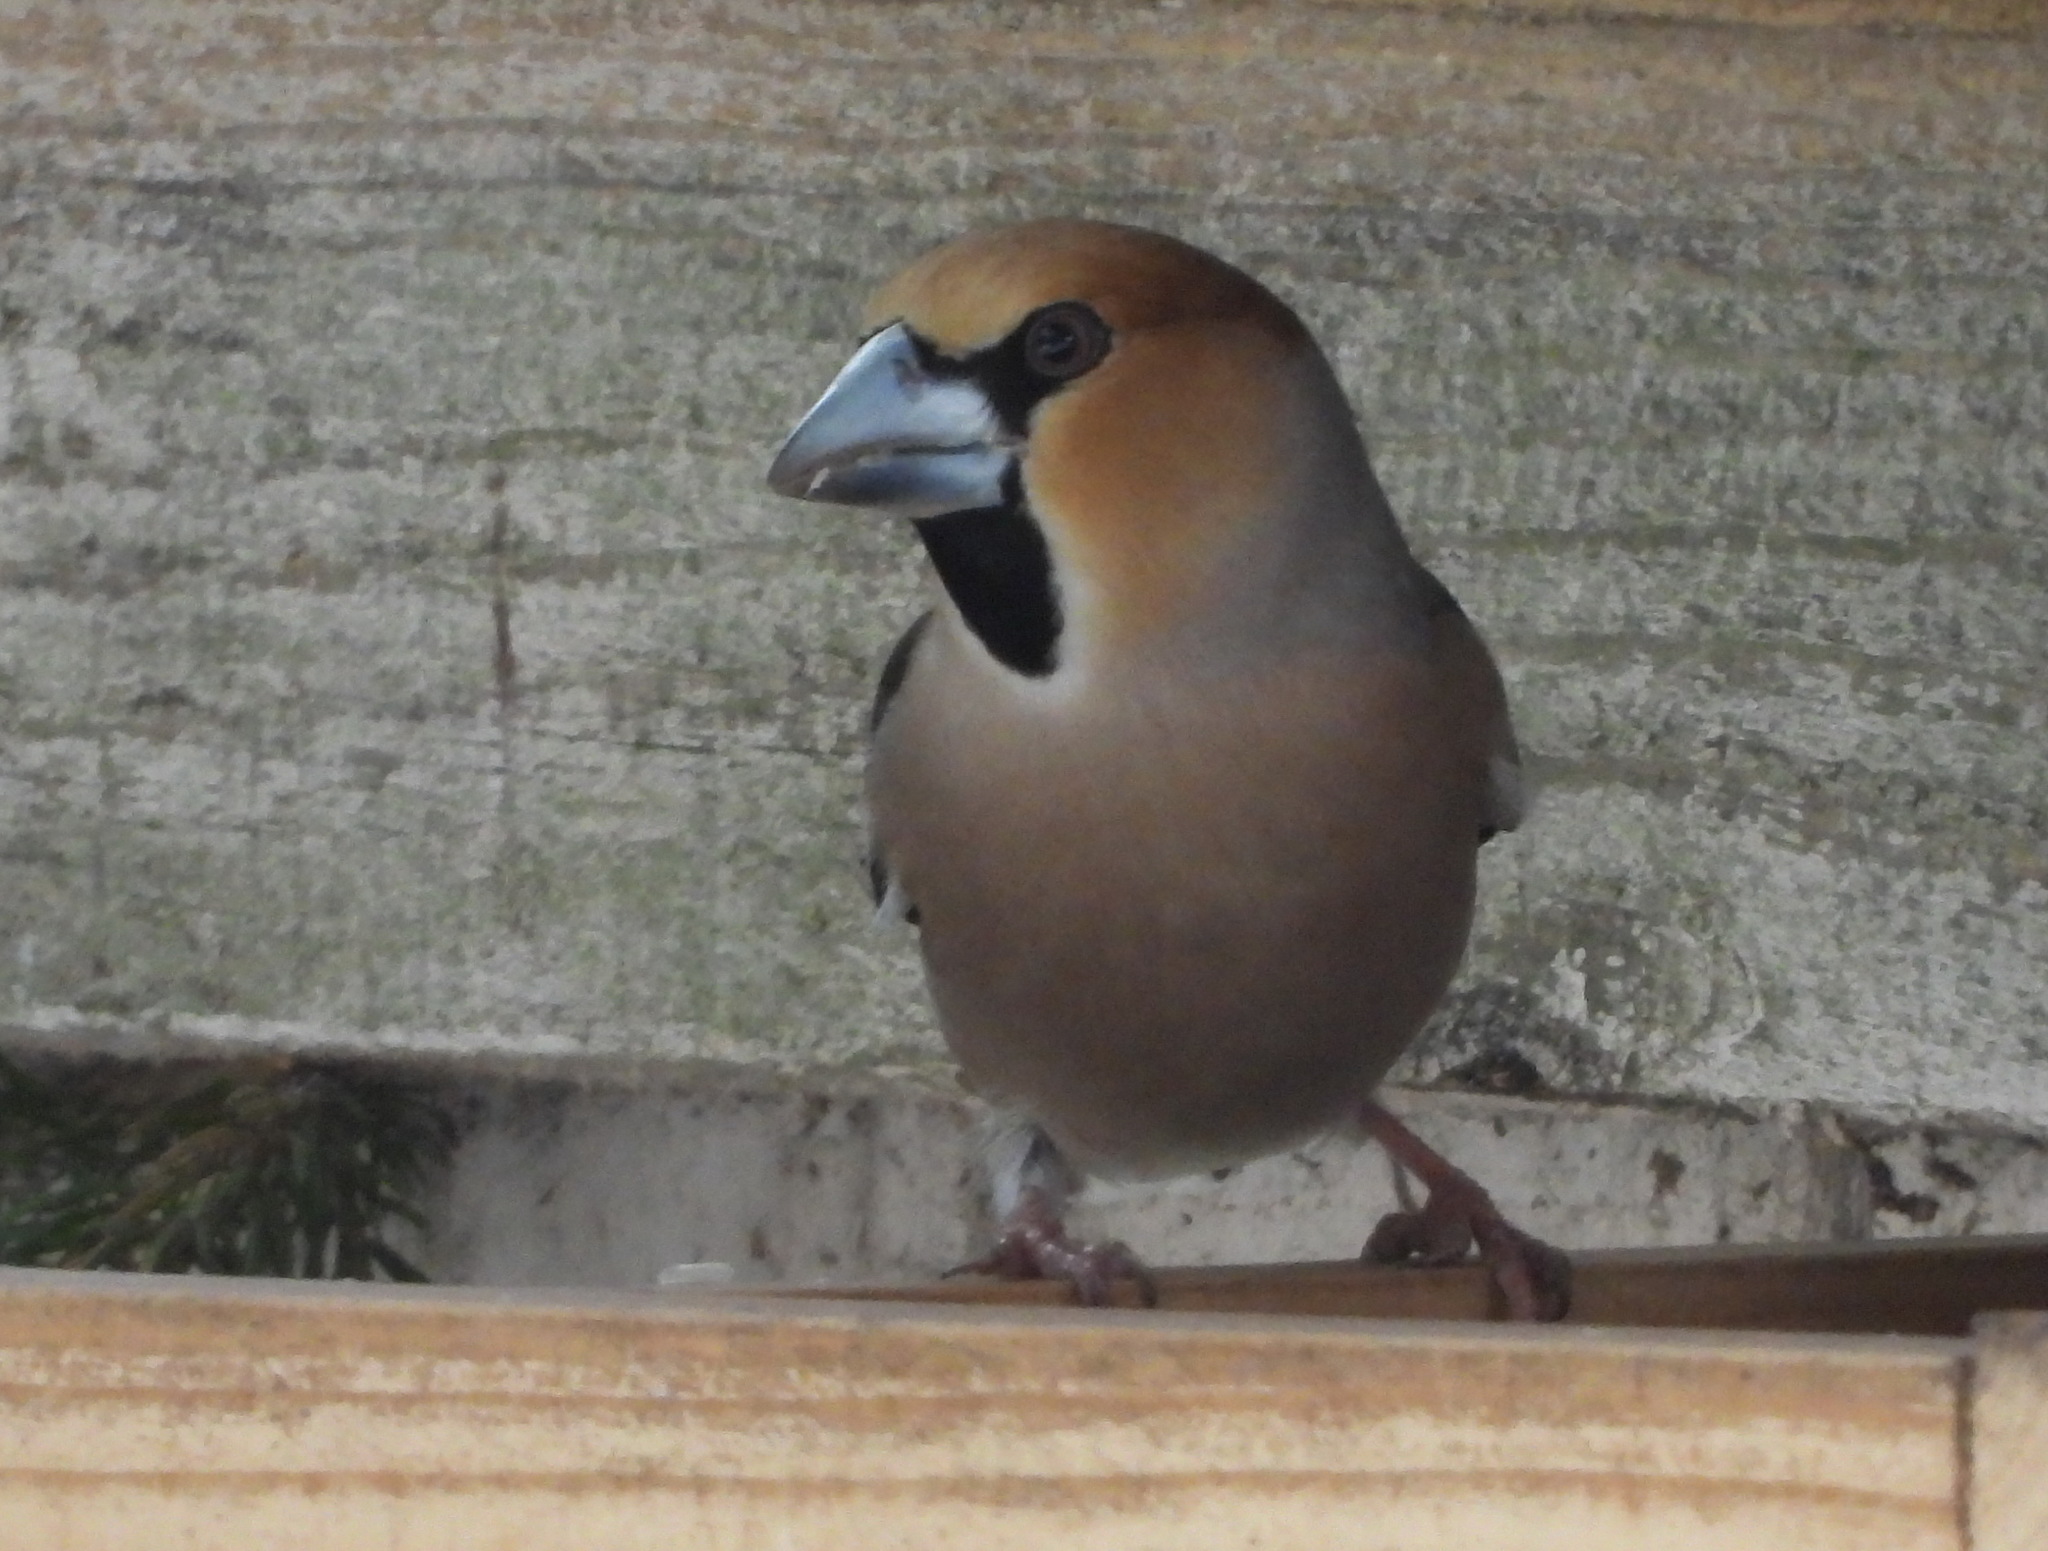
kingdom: Animalia
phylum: Chordata
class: Aves
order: Passeriformes
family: Fringillidae
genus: Coccothraustes
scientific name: Coccothraustes coccothraustes
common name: Hawfinch
